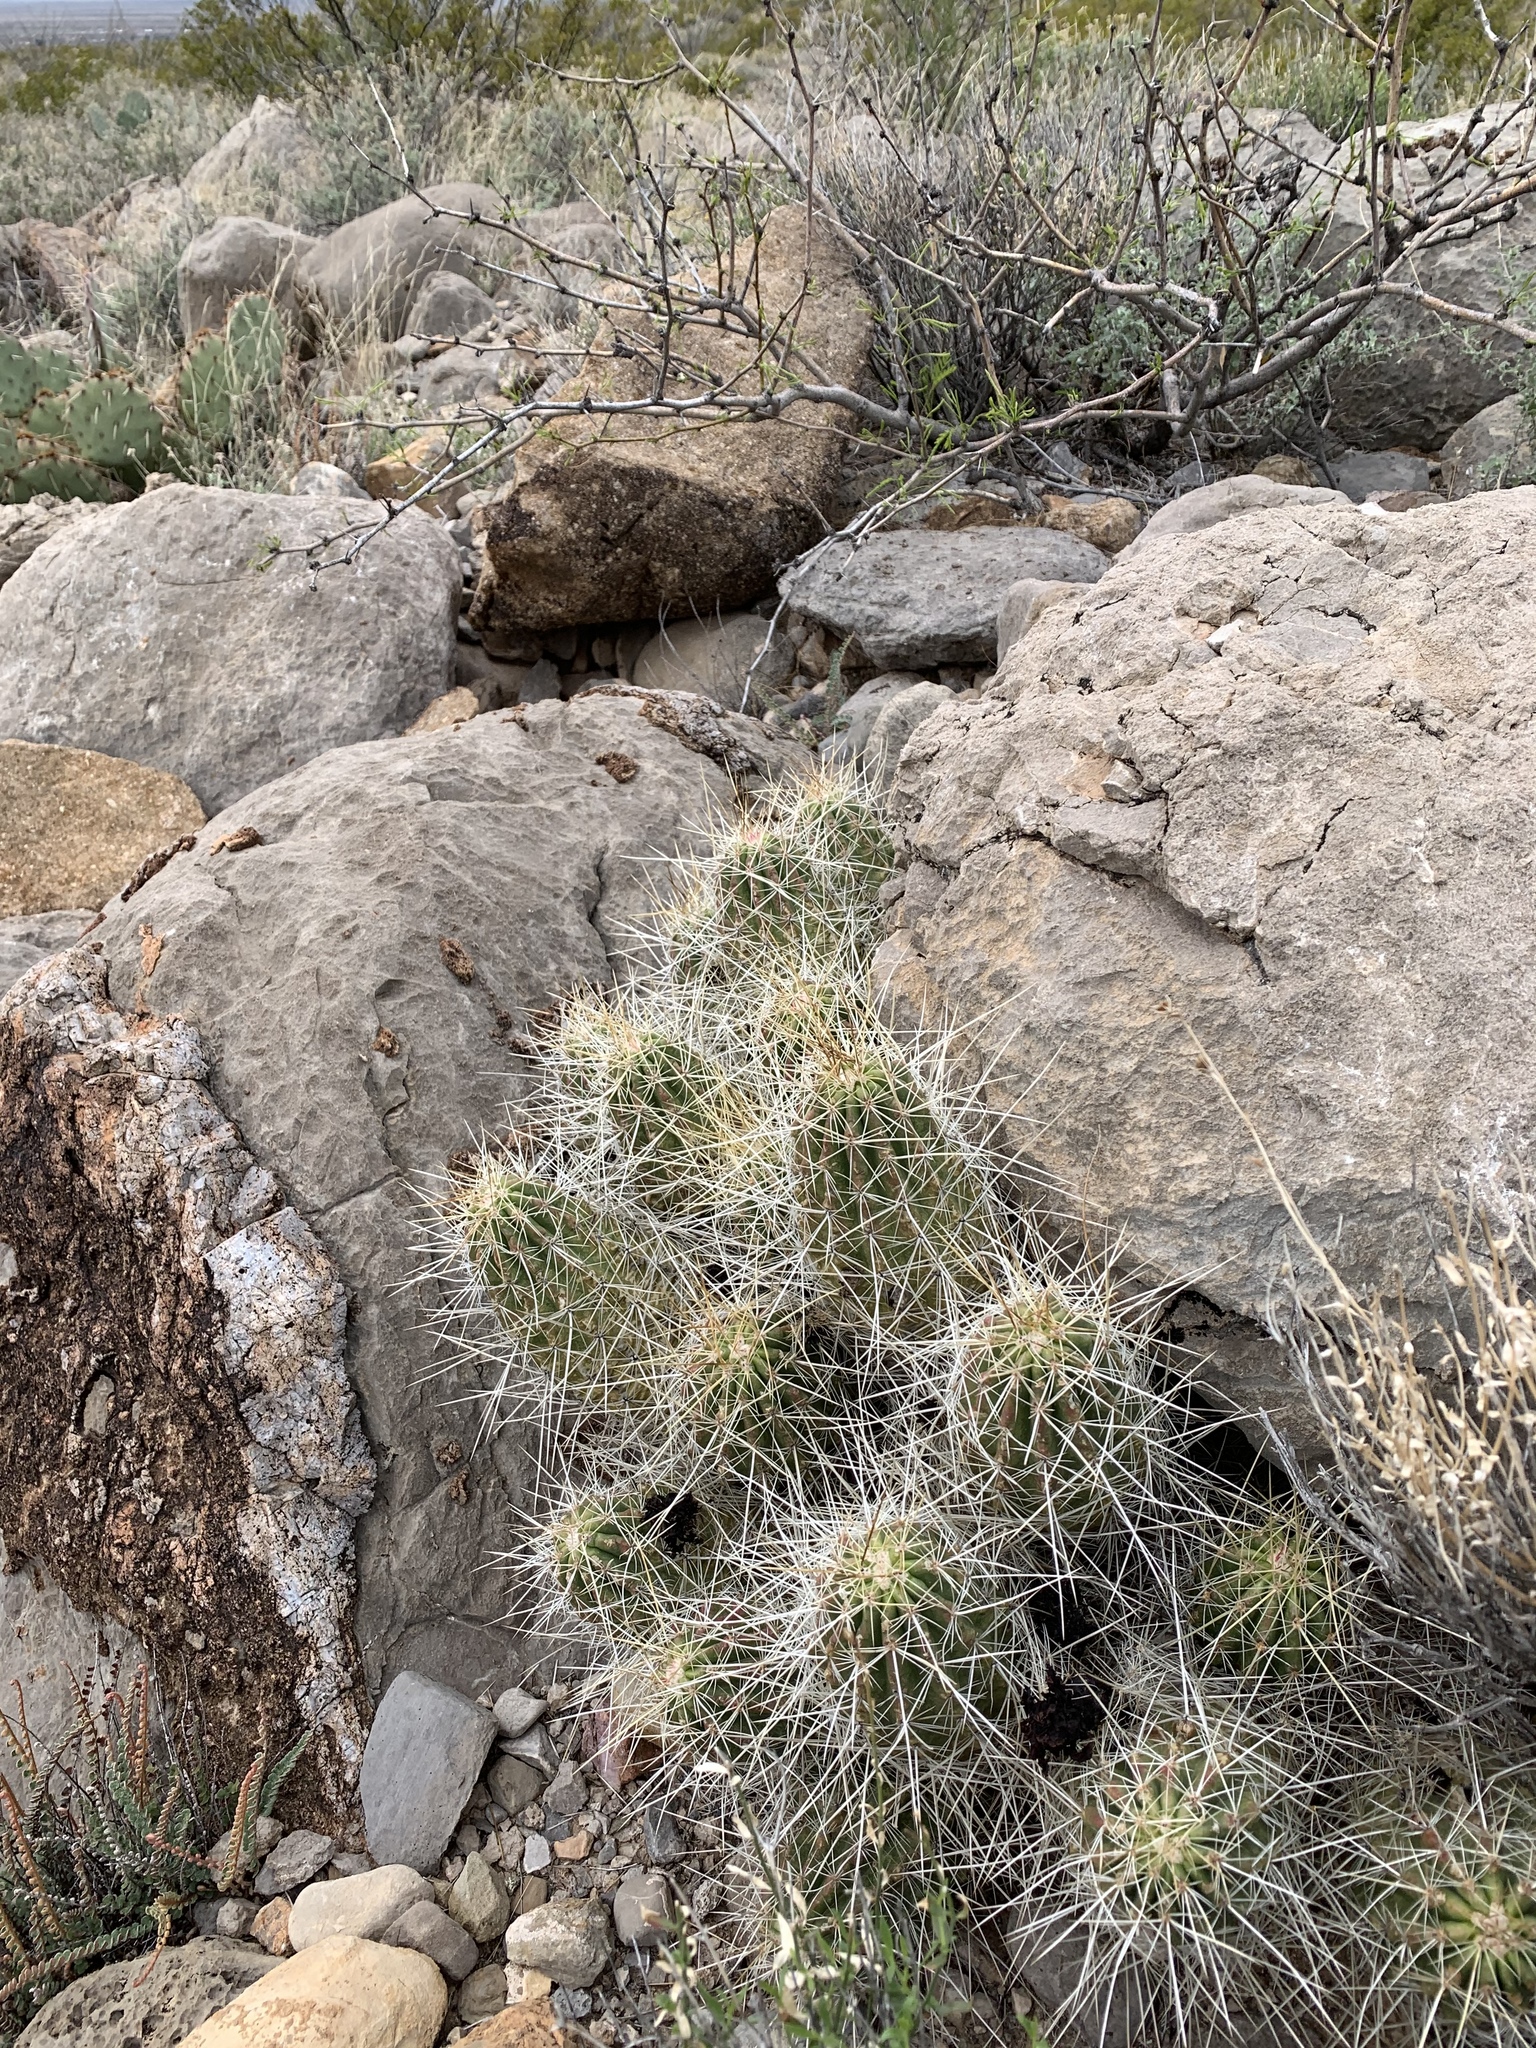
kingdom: Plantae
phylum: Tracheophyta
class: Magnoliopsida
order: Caryophyllales
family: Cactaceae
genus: Echinocereus
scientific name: Echinocereus stramineus
